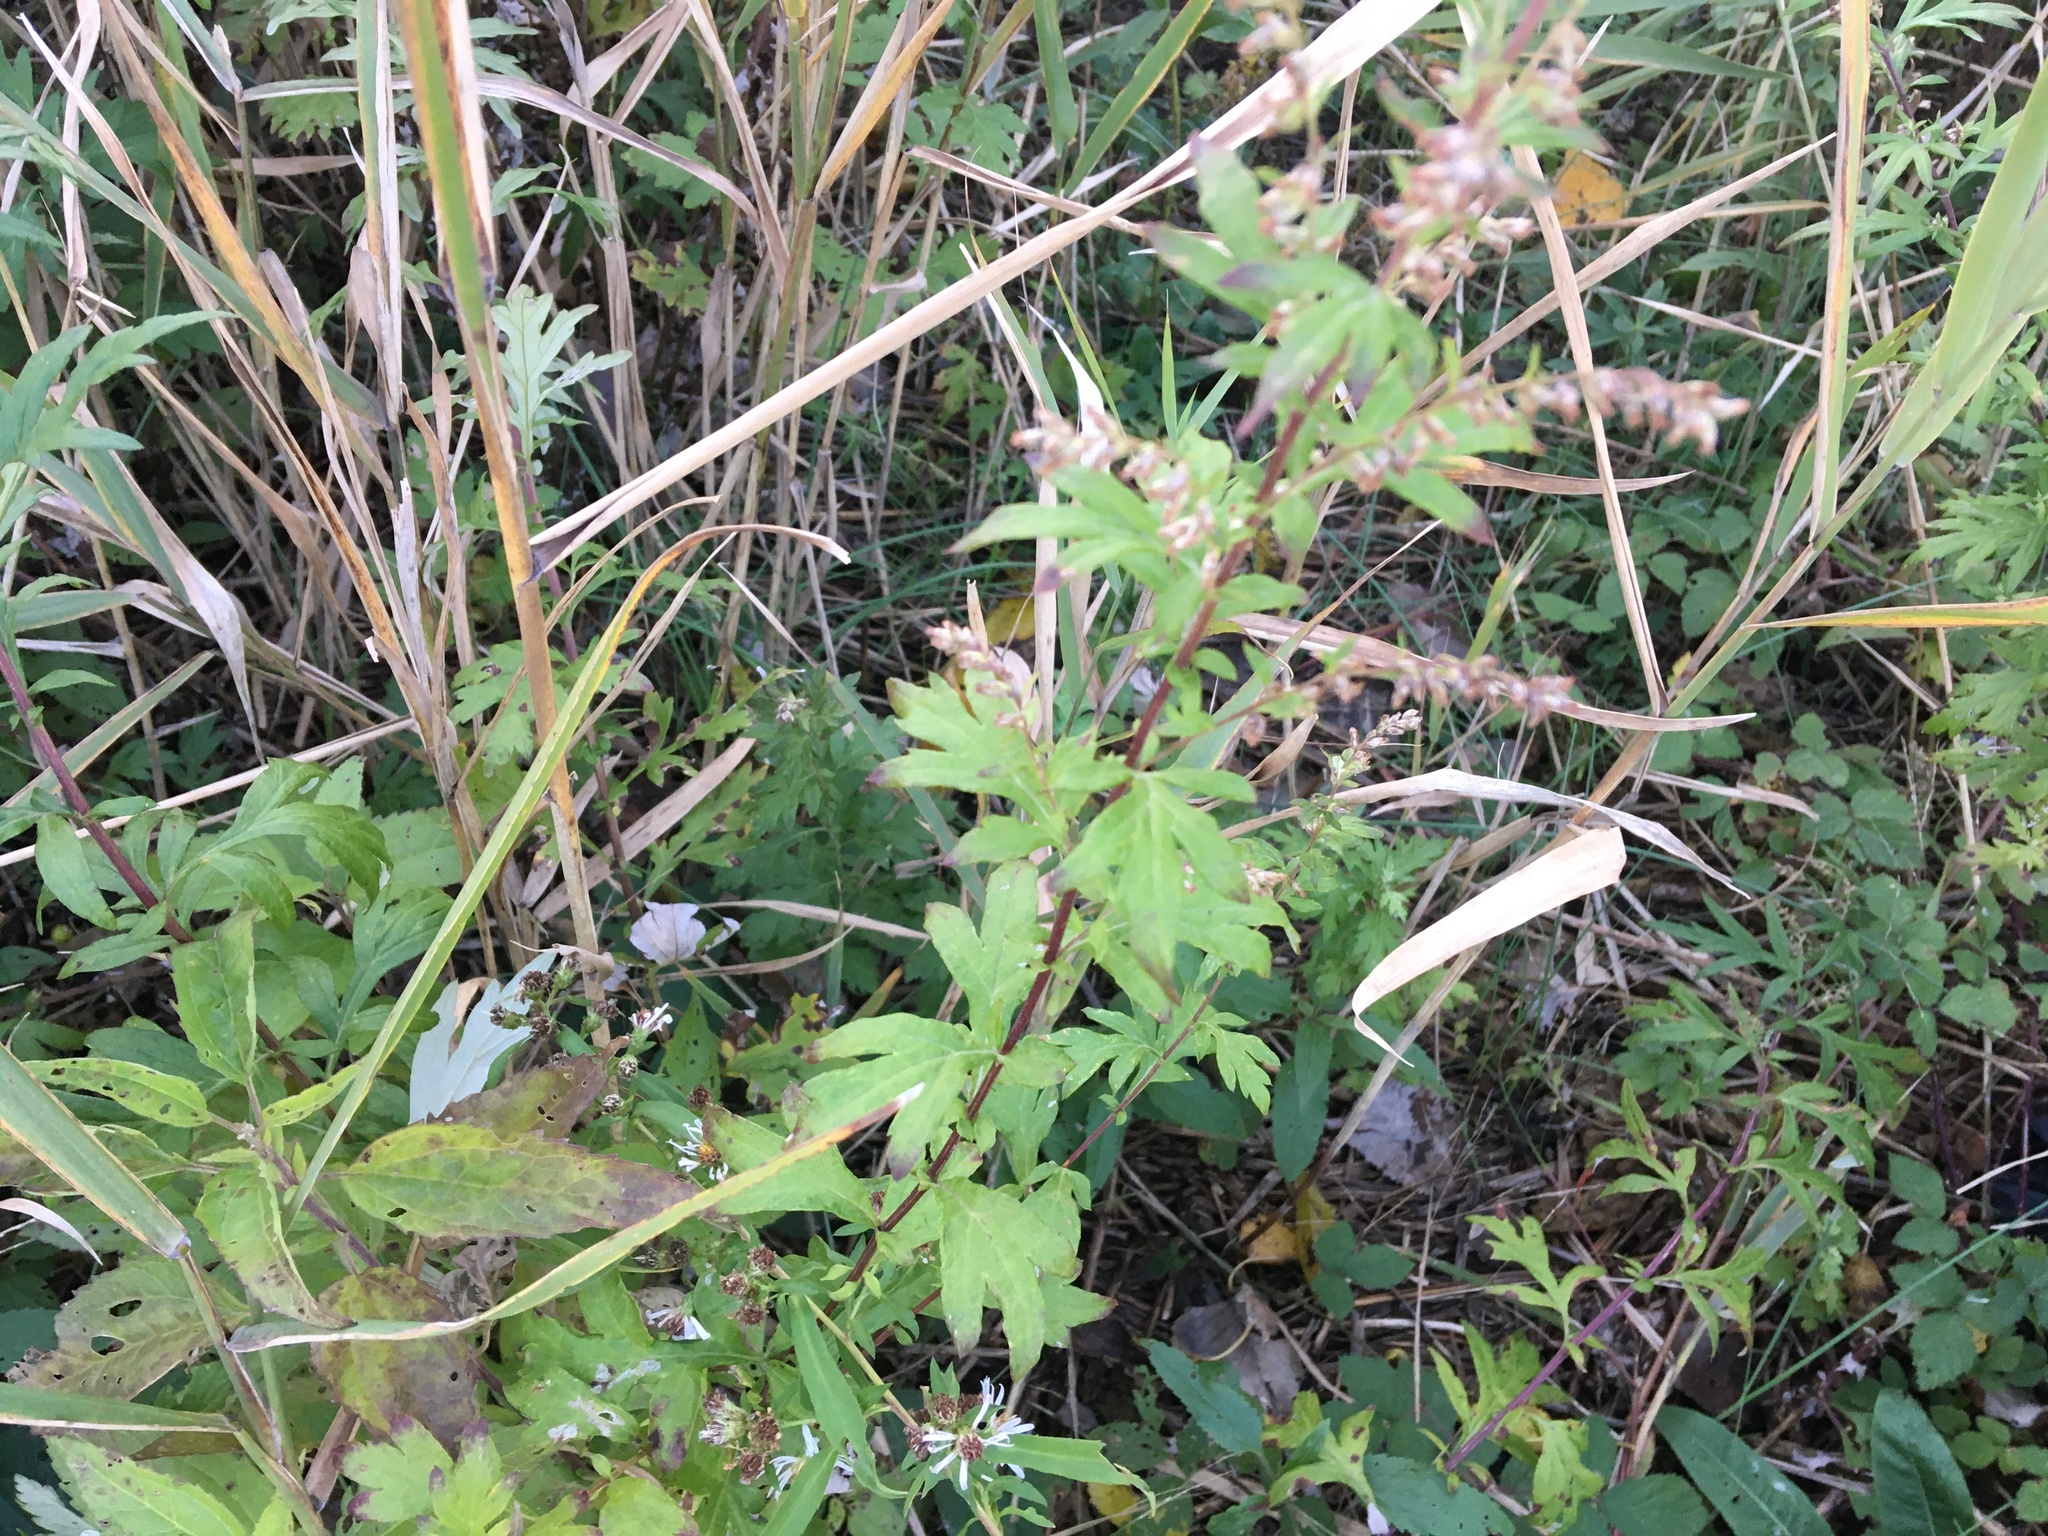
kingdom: Plantae
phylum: Tracheophyta
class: Magnoliopsida
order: Asterales
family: Asteraceae
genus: Artemisia
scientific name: Artemisia vulgaris
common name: Mugwort
